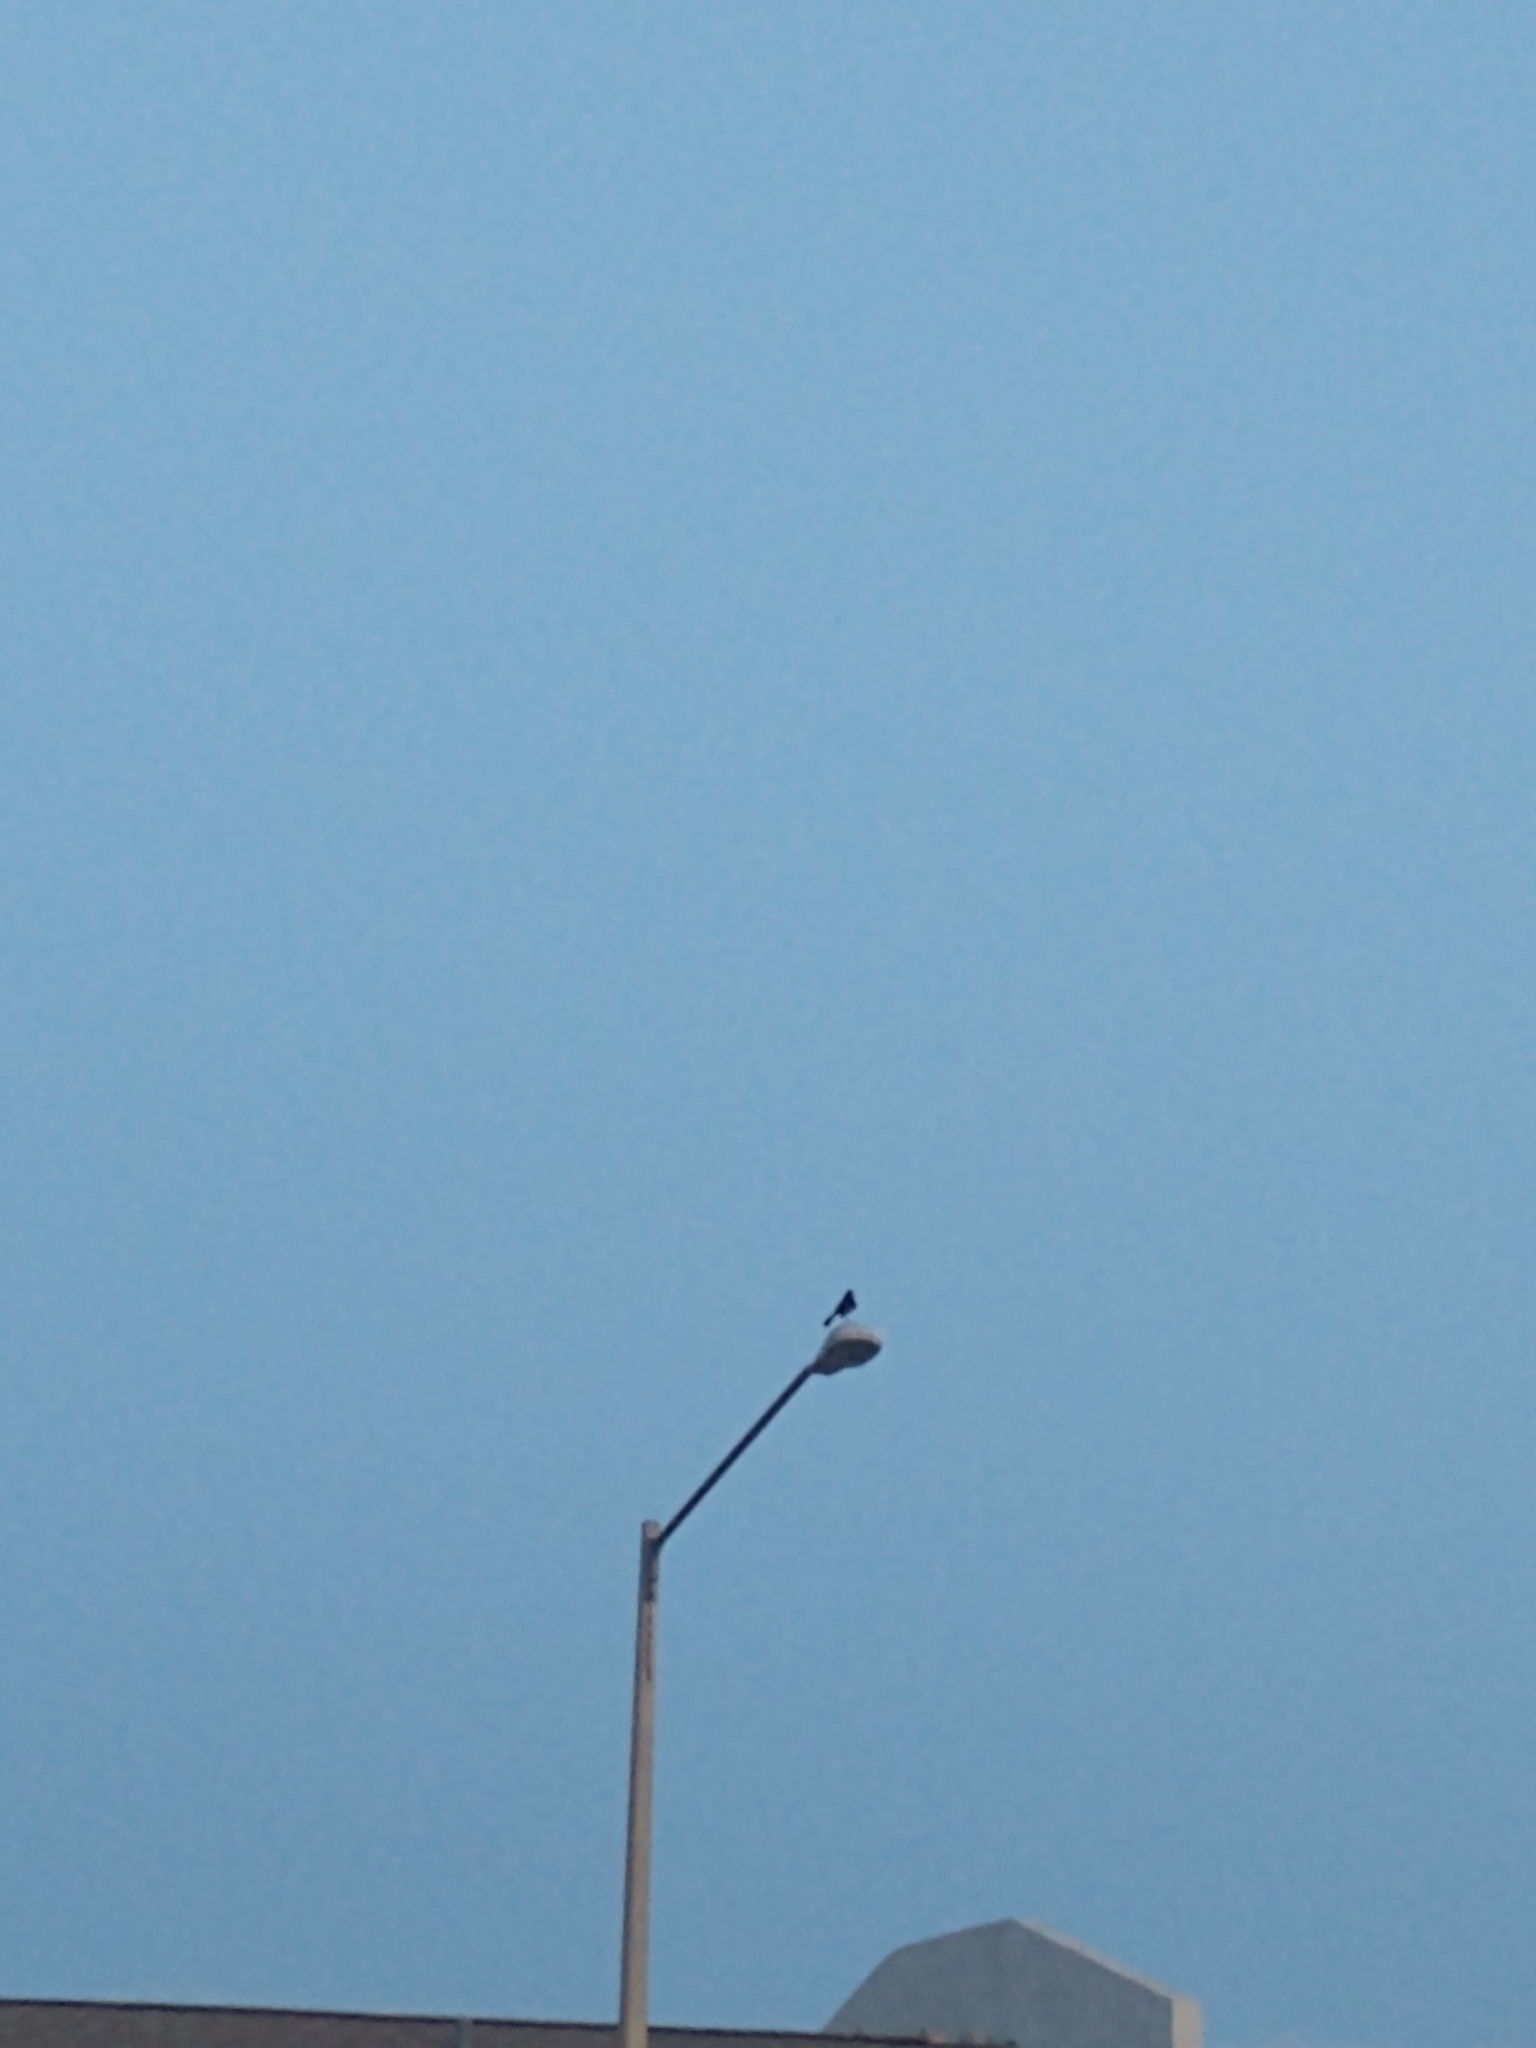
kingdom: Animalia
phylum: Chordata
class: Aves
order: Passeriformes
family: Icteridae
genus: Quiscalus
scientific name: Quiscalus major
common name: Boat-tailed grackle
